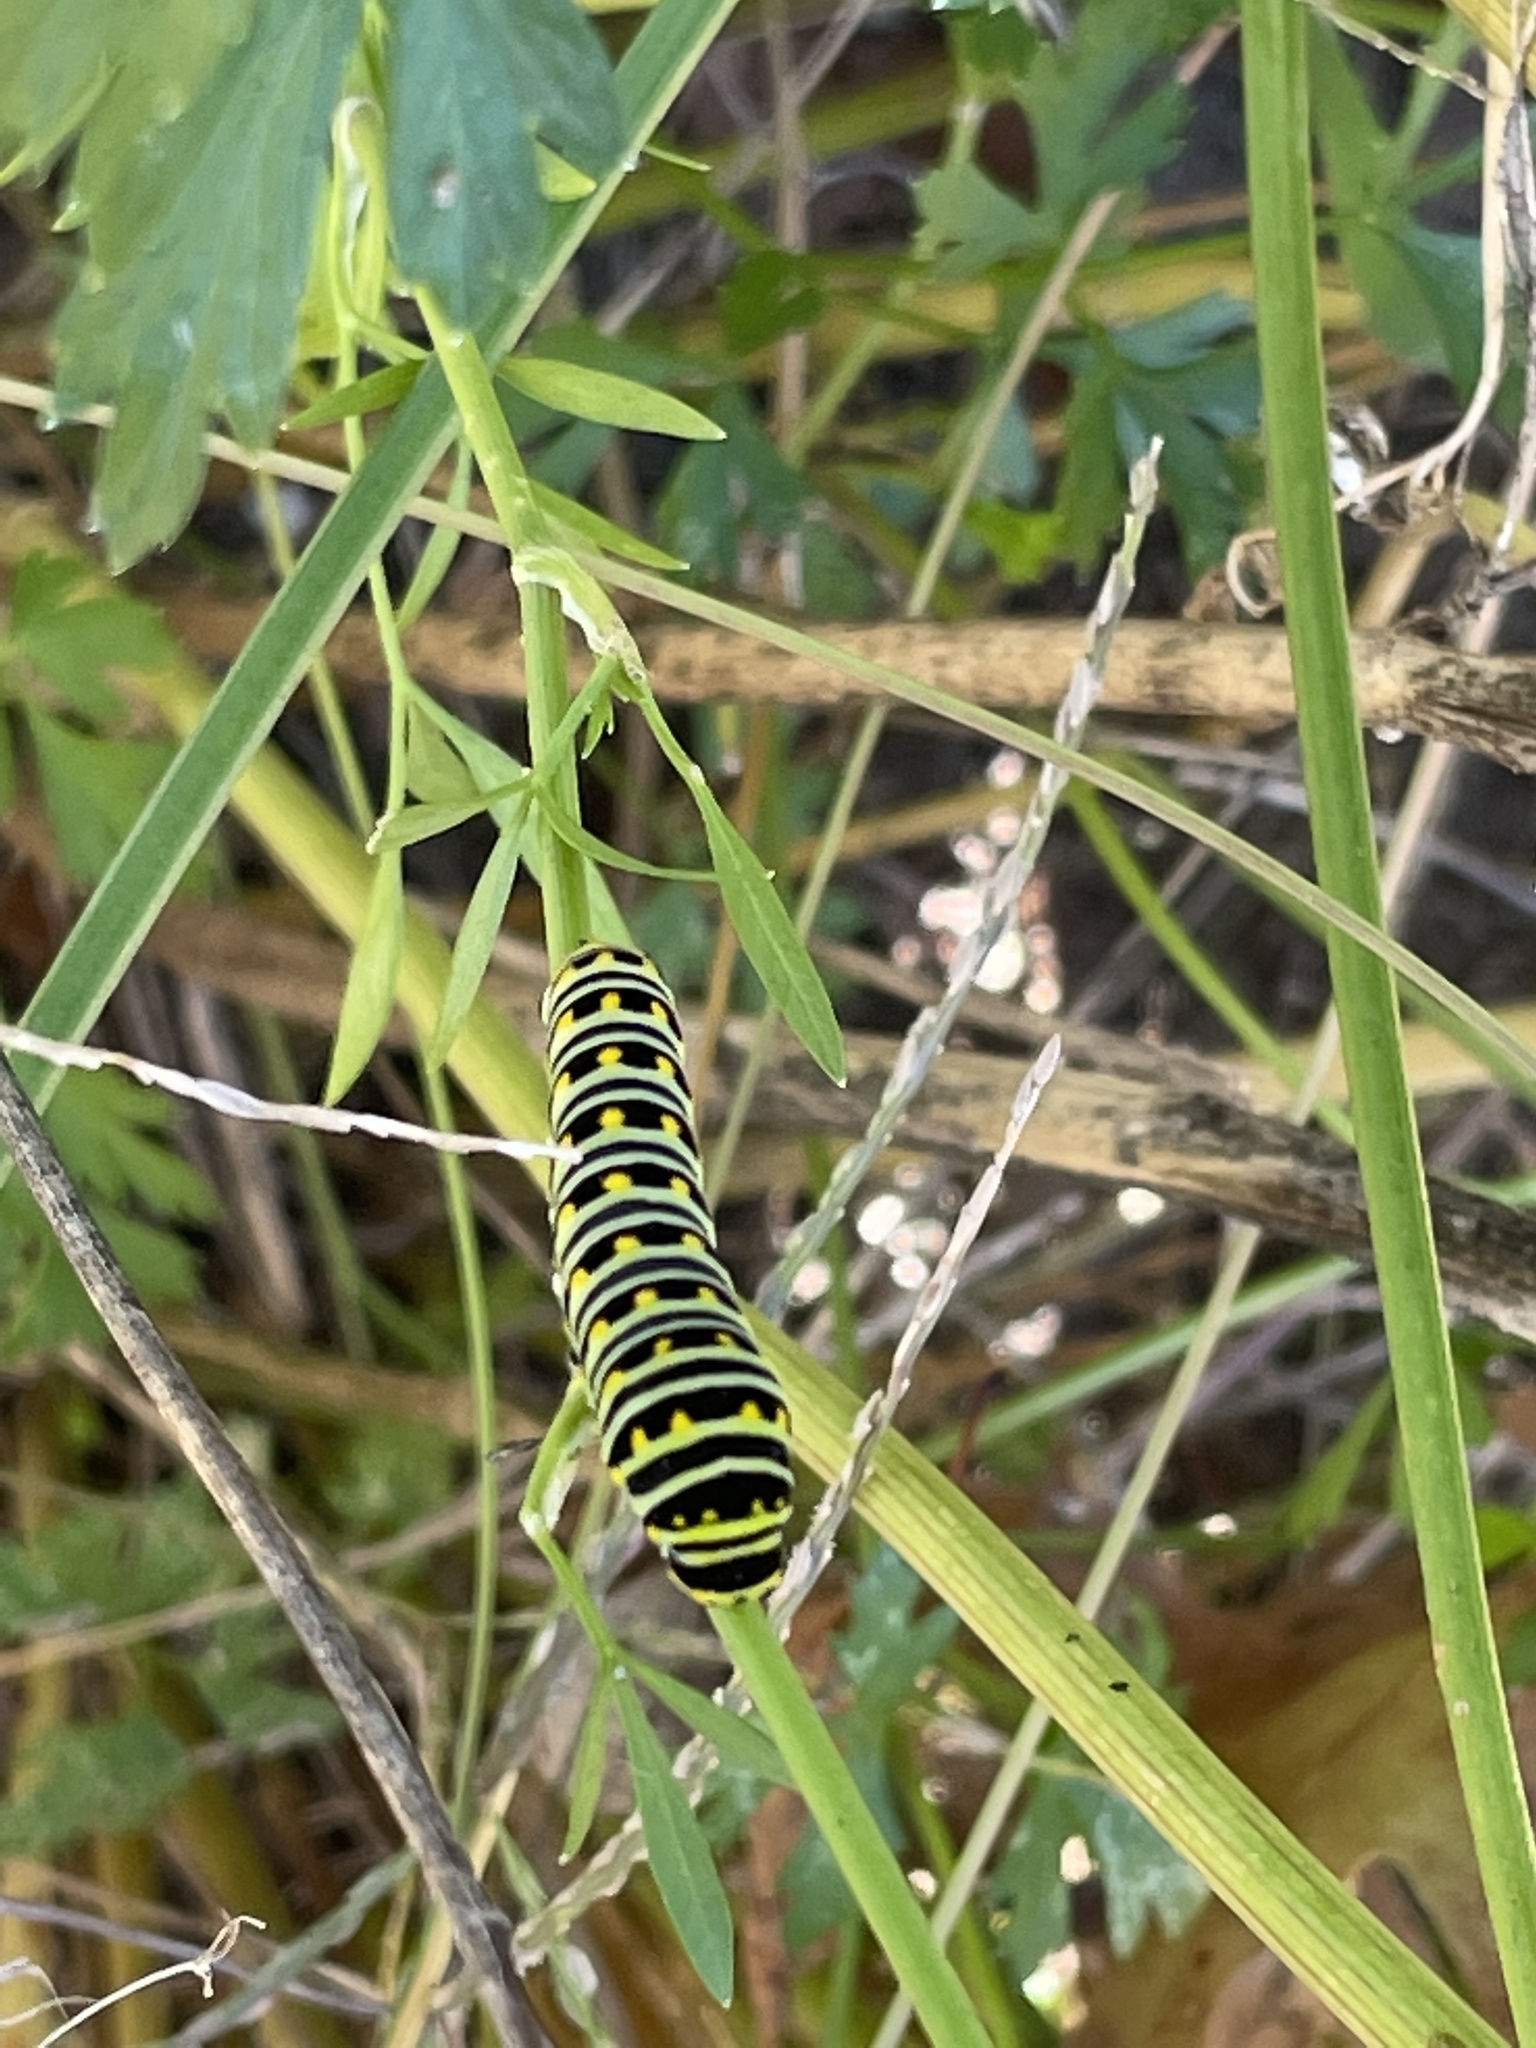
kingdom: Animalia
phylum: Arthropoda
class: Insecta
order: Lepidoptera
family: Papilionidae
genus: Papilio
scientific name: Papilio polyxenes
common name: Black swallowtail
